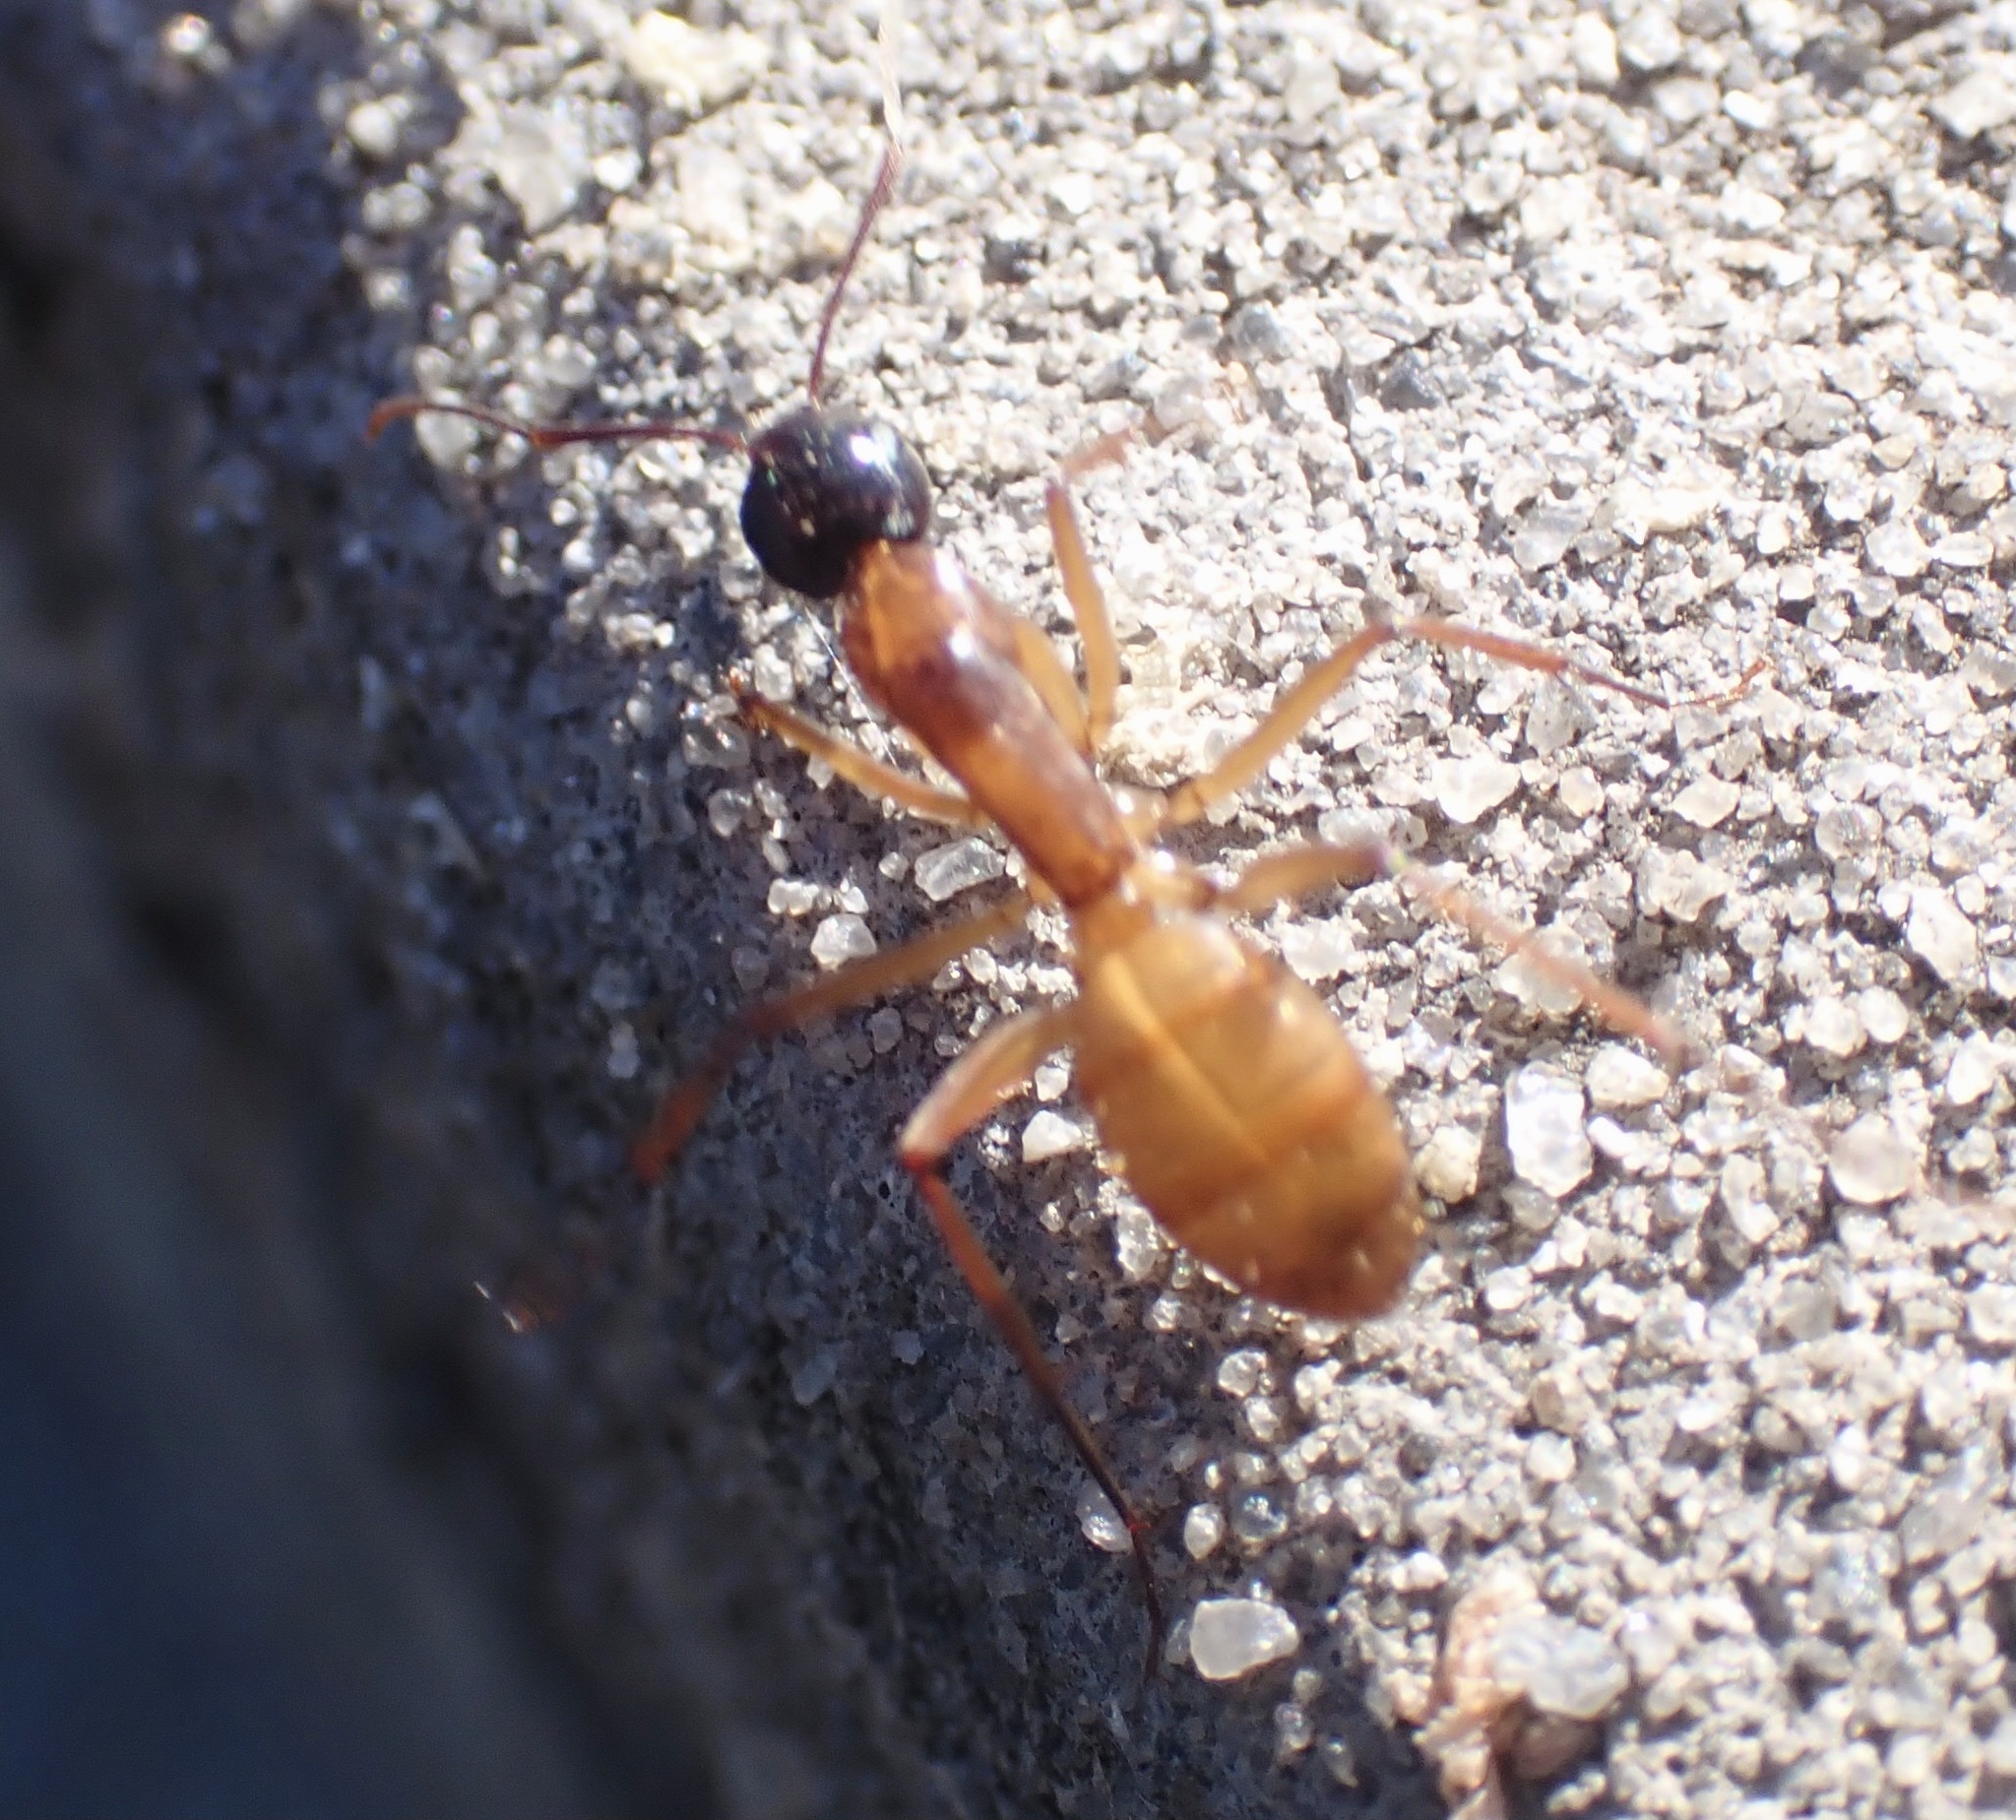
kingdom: Animalia
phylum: Arthropoda
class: Insecta
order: Hymenoptera
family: Formicidae
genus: Camponotus
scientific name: Camponotus americanus
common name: American carpenter ant
